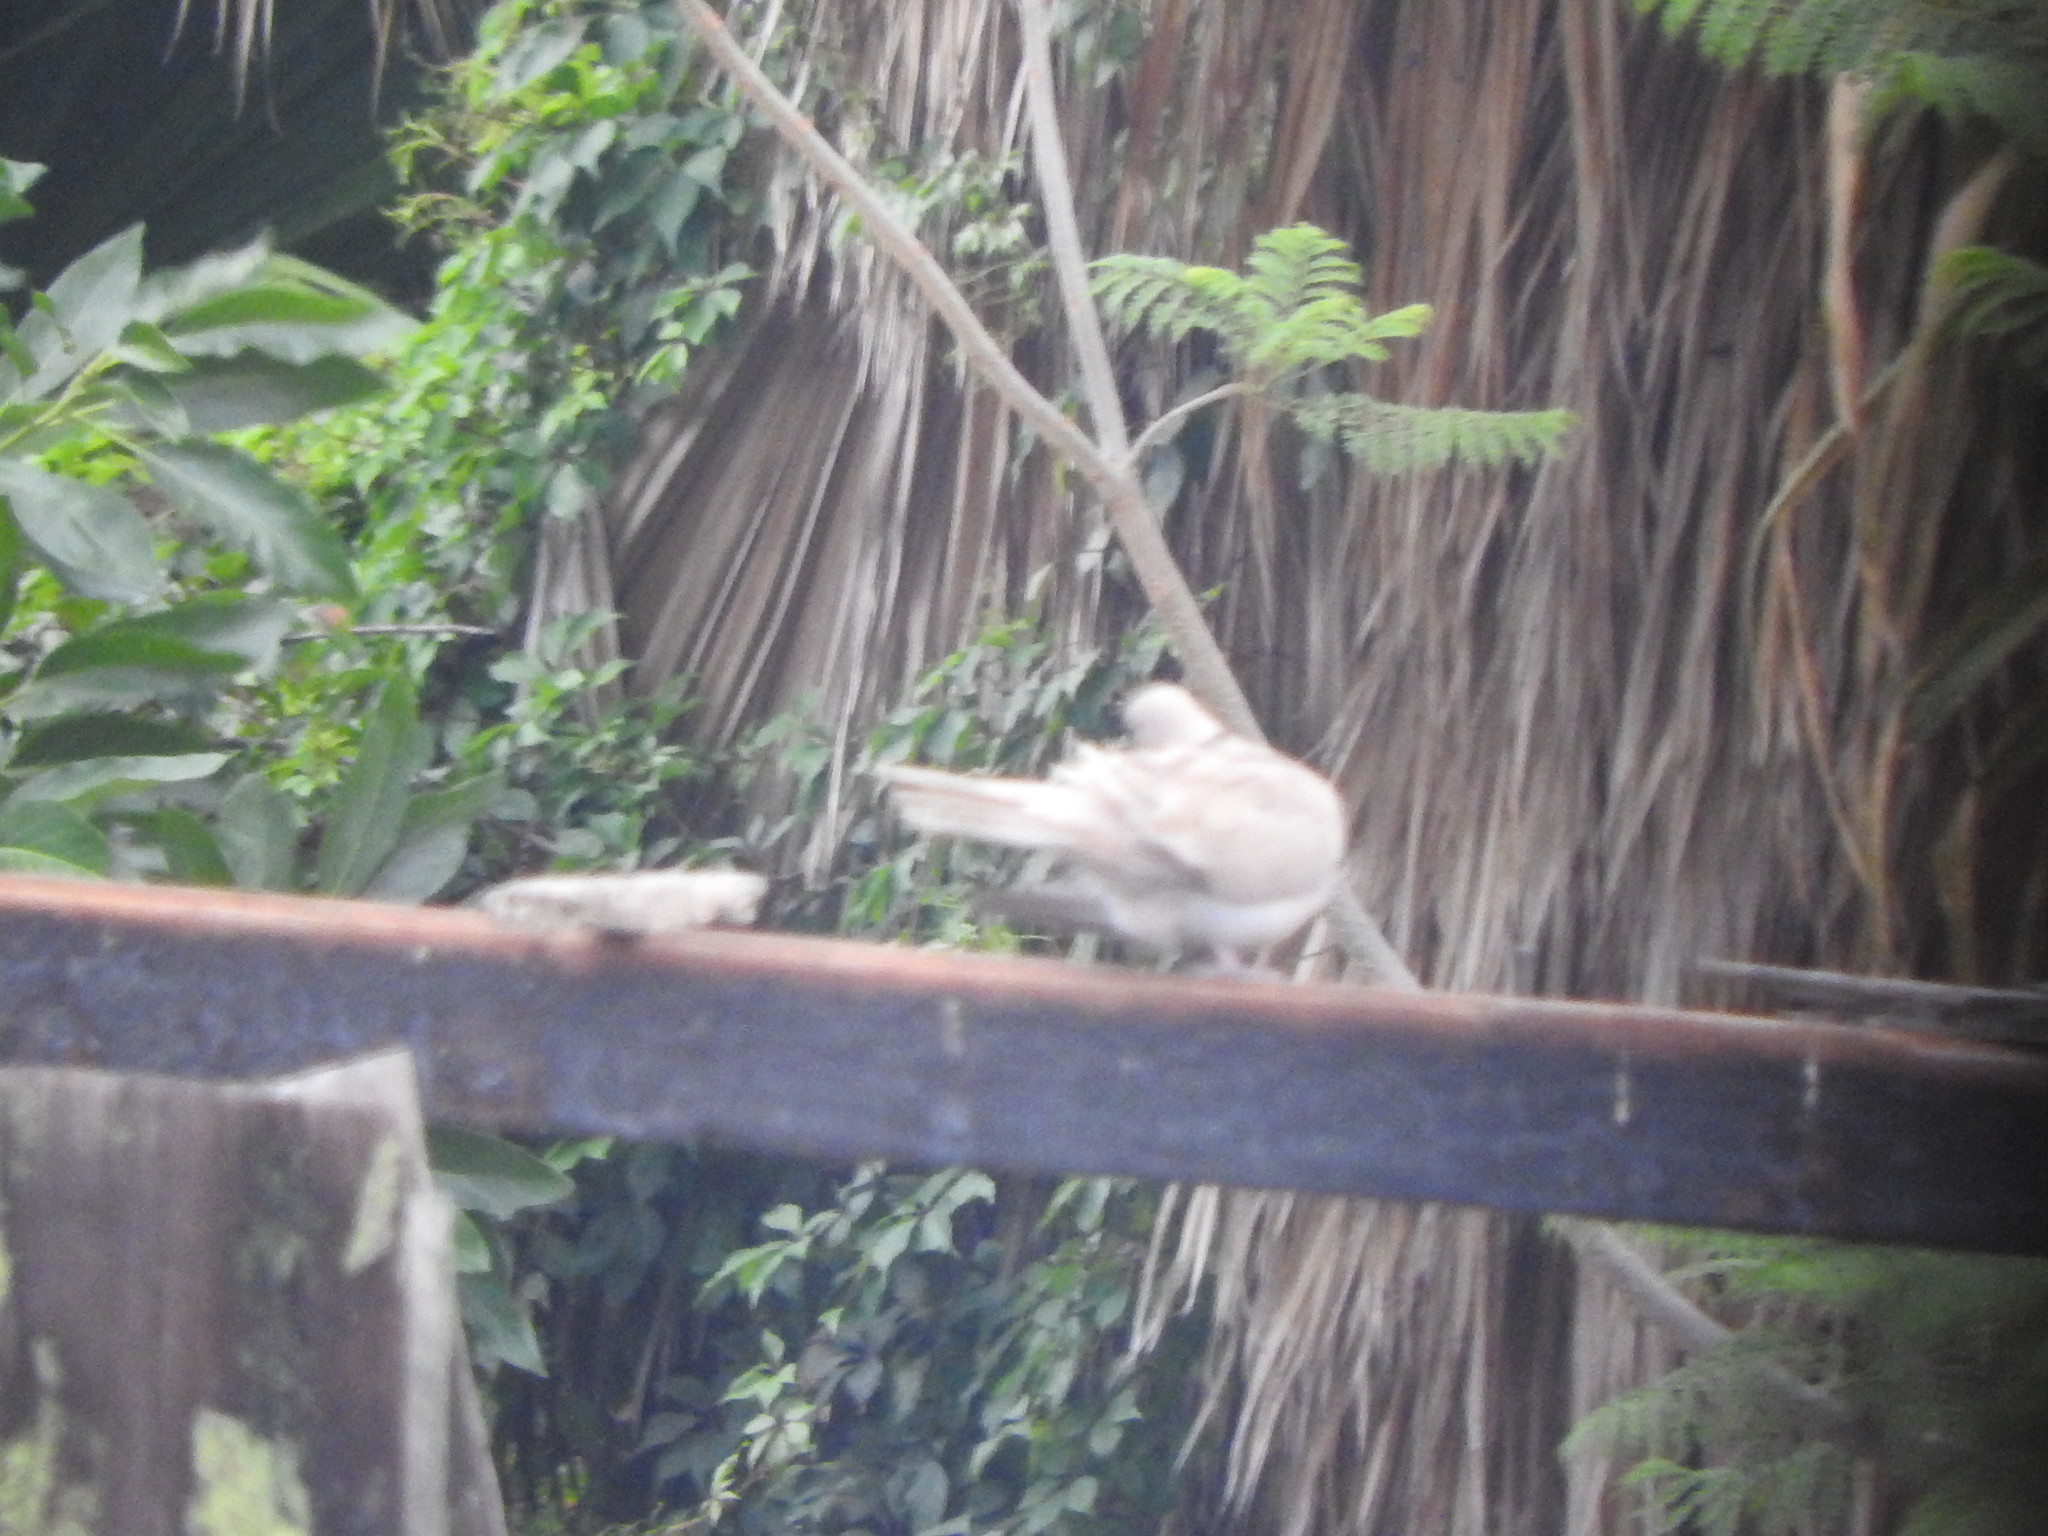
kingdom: Animalia
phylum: Chordata
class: Aves
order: Columbiformes
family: Columbidae
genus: Streptopelia
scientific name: Streptopelia decaocto
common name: Eurasian collared dove
